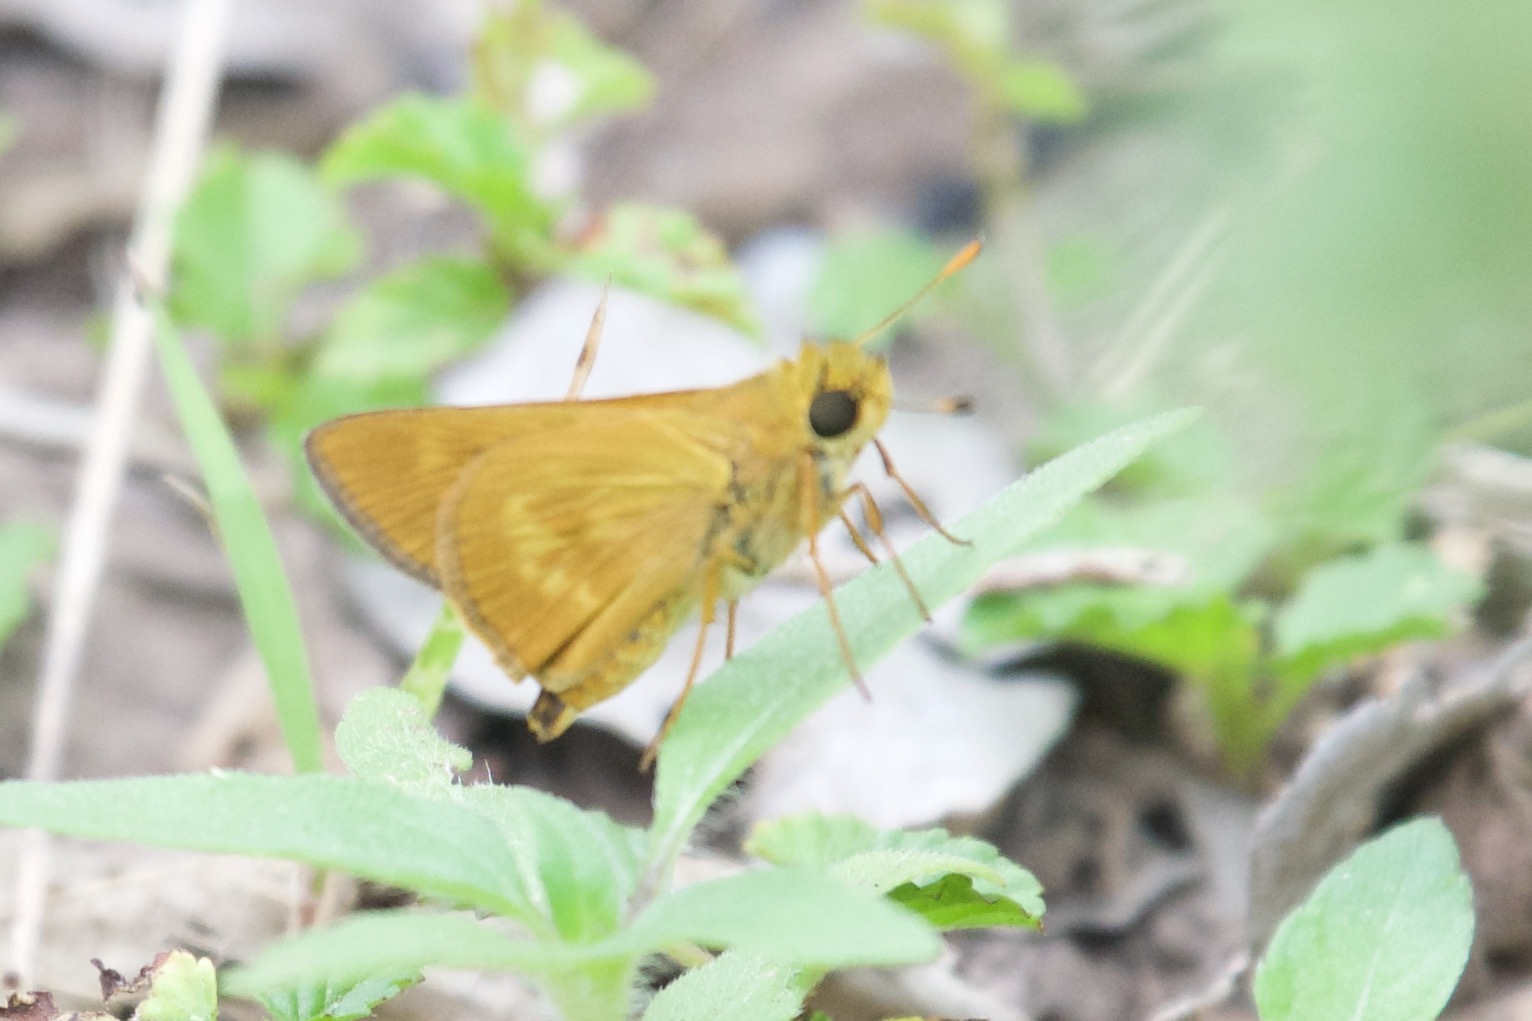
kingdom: Animalia
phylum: Arthropoda
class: Insecta
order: Lepidoptera
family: Hesperiidae
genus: Polites
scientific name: Polites otho
